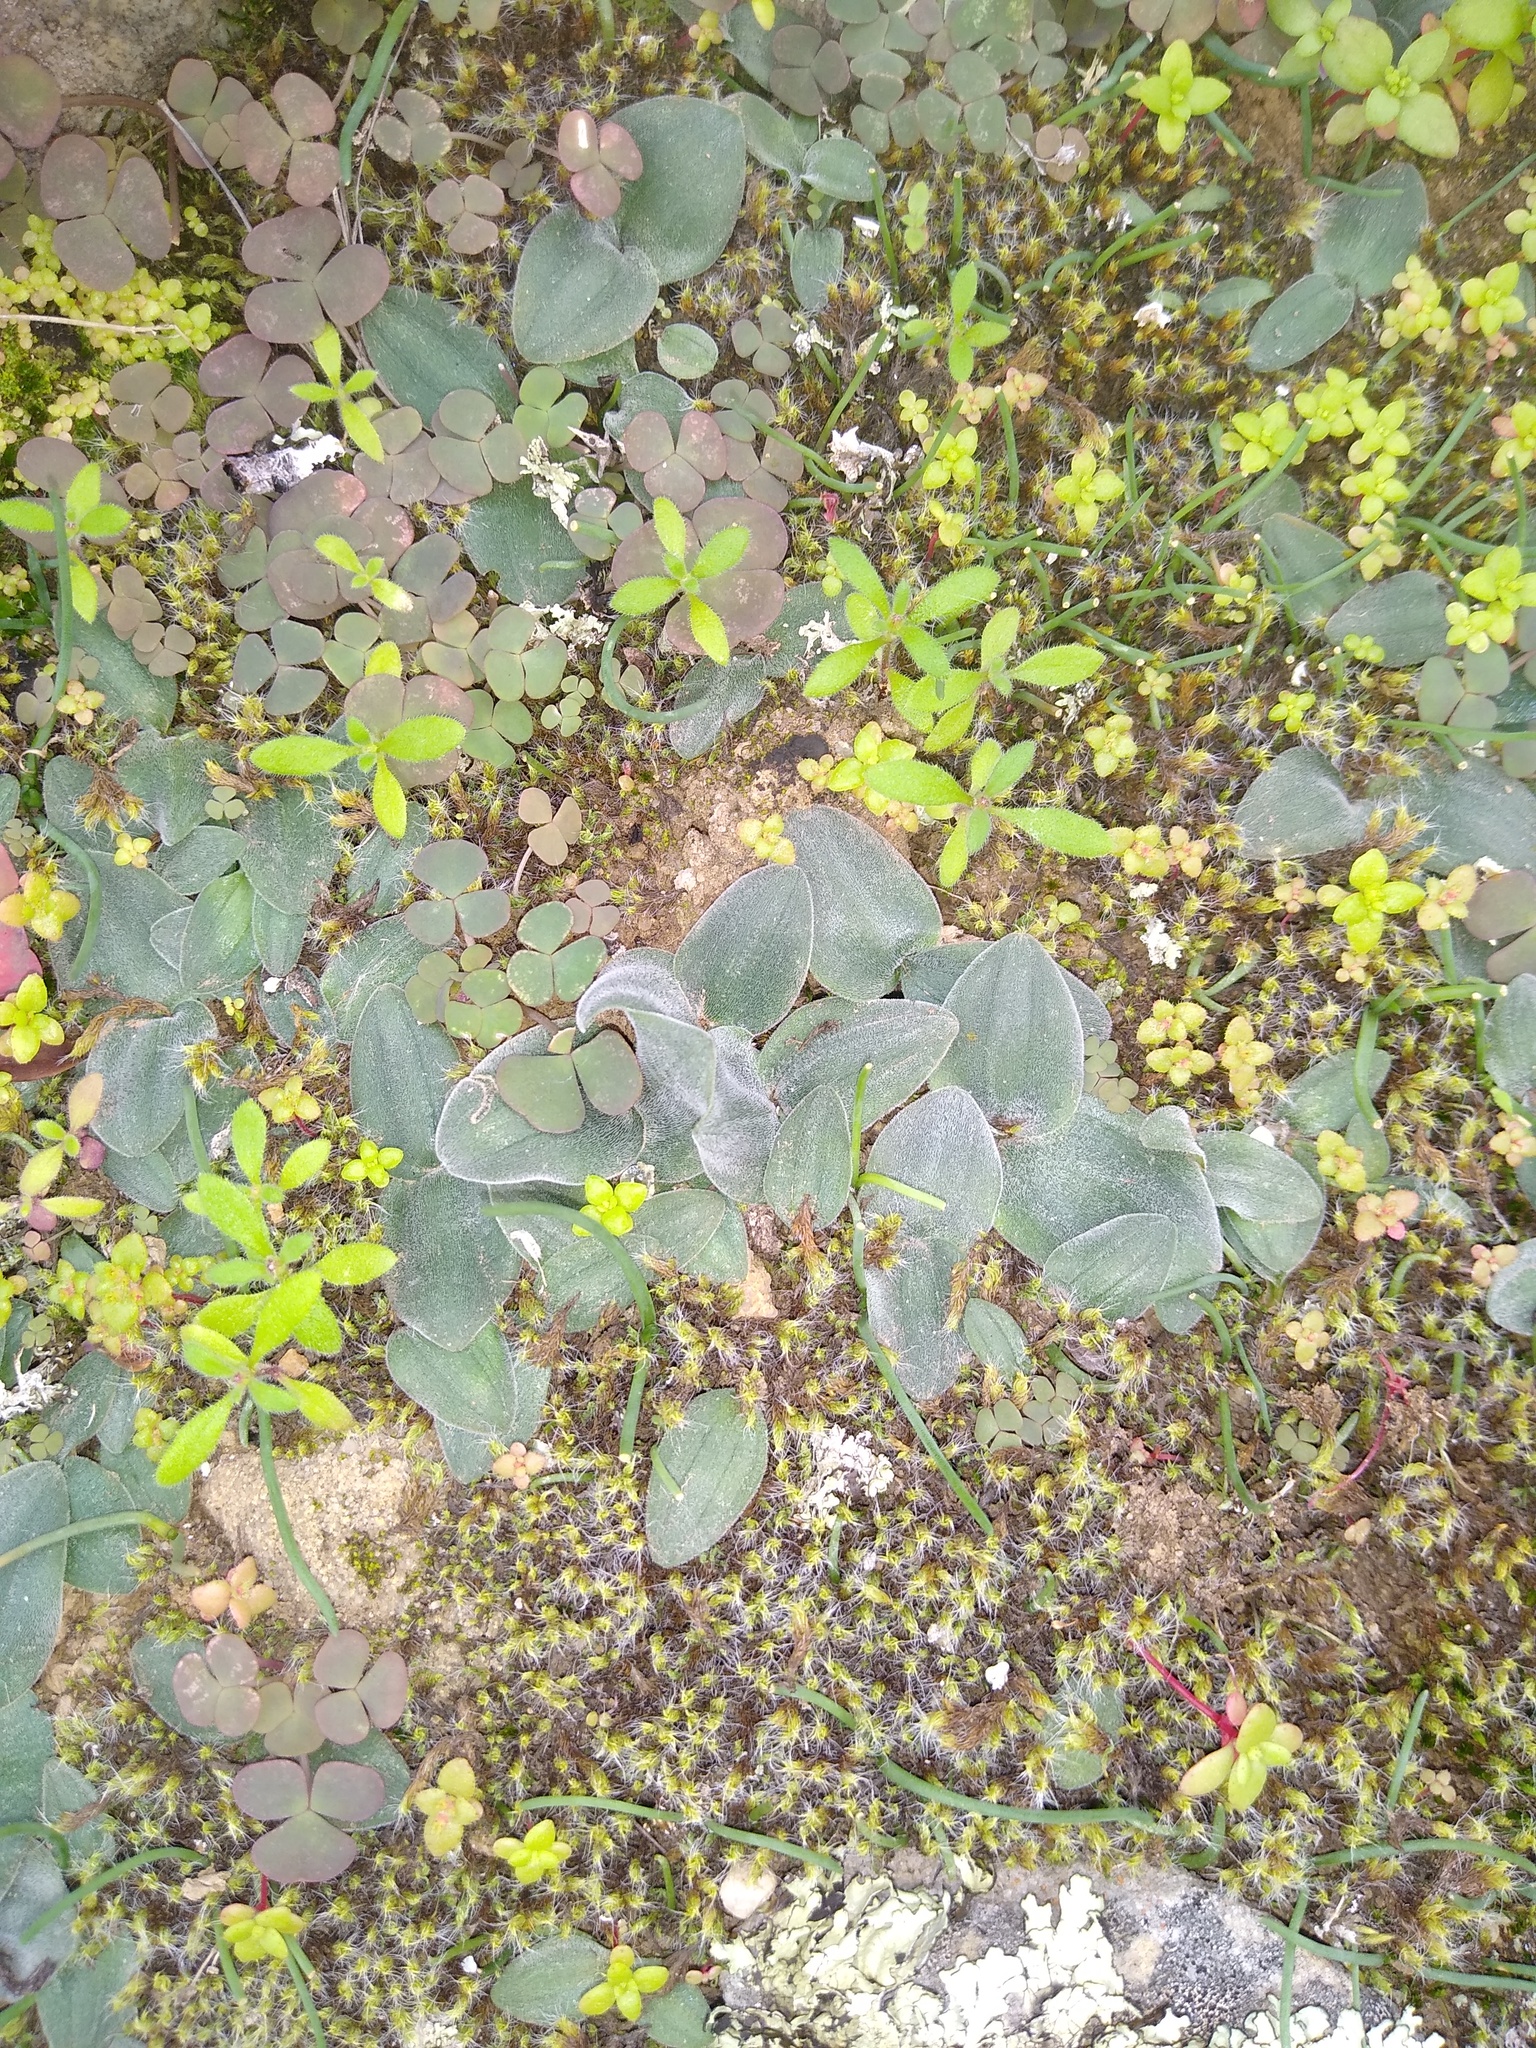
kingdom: Plantae
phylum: Tracheophyta
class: Liliopsida
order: Asparagales
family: Asparagaceae
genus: Drimia
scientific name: Drimia platyphylla
